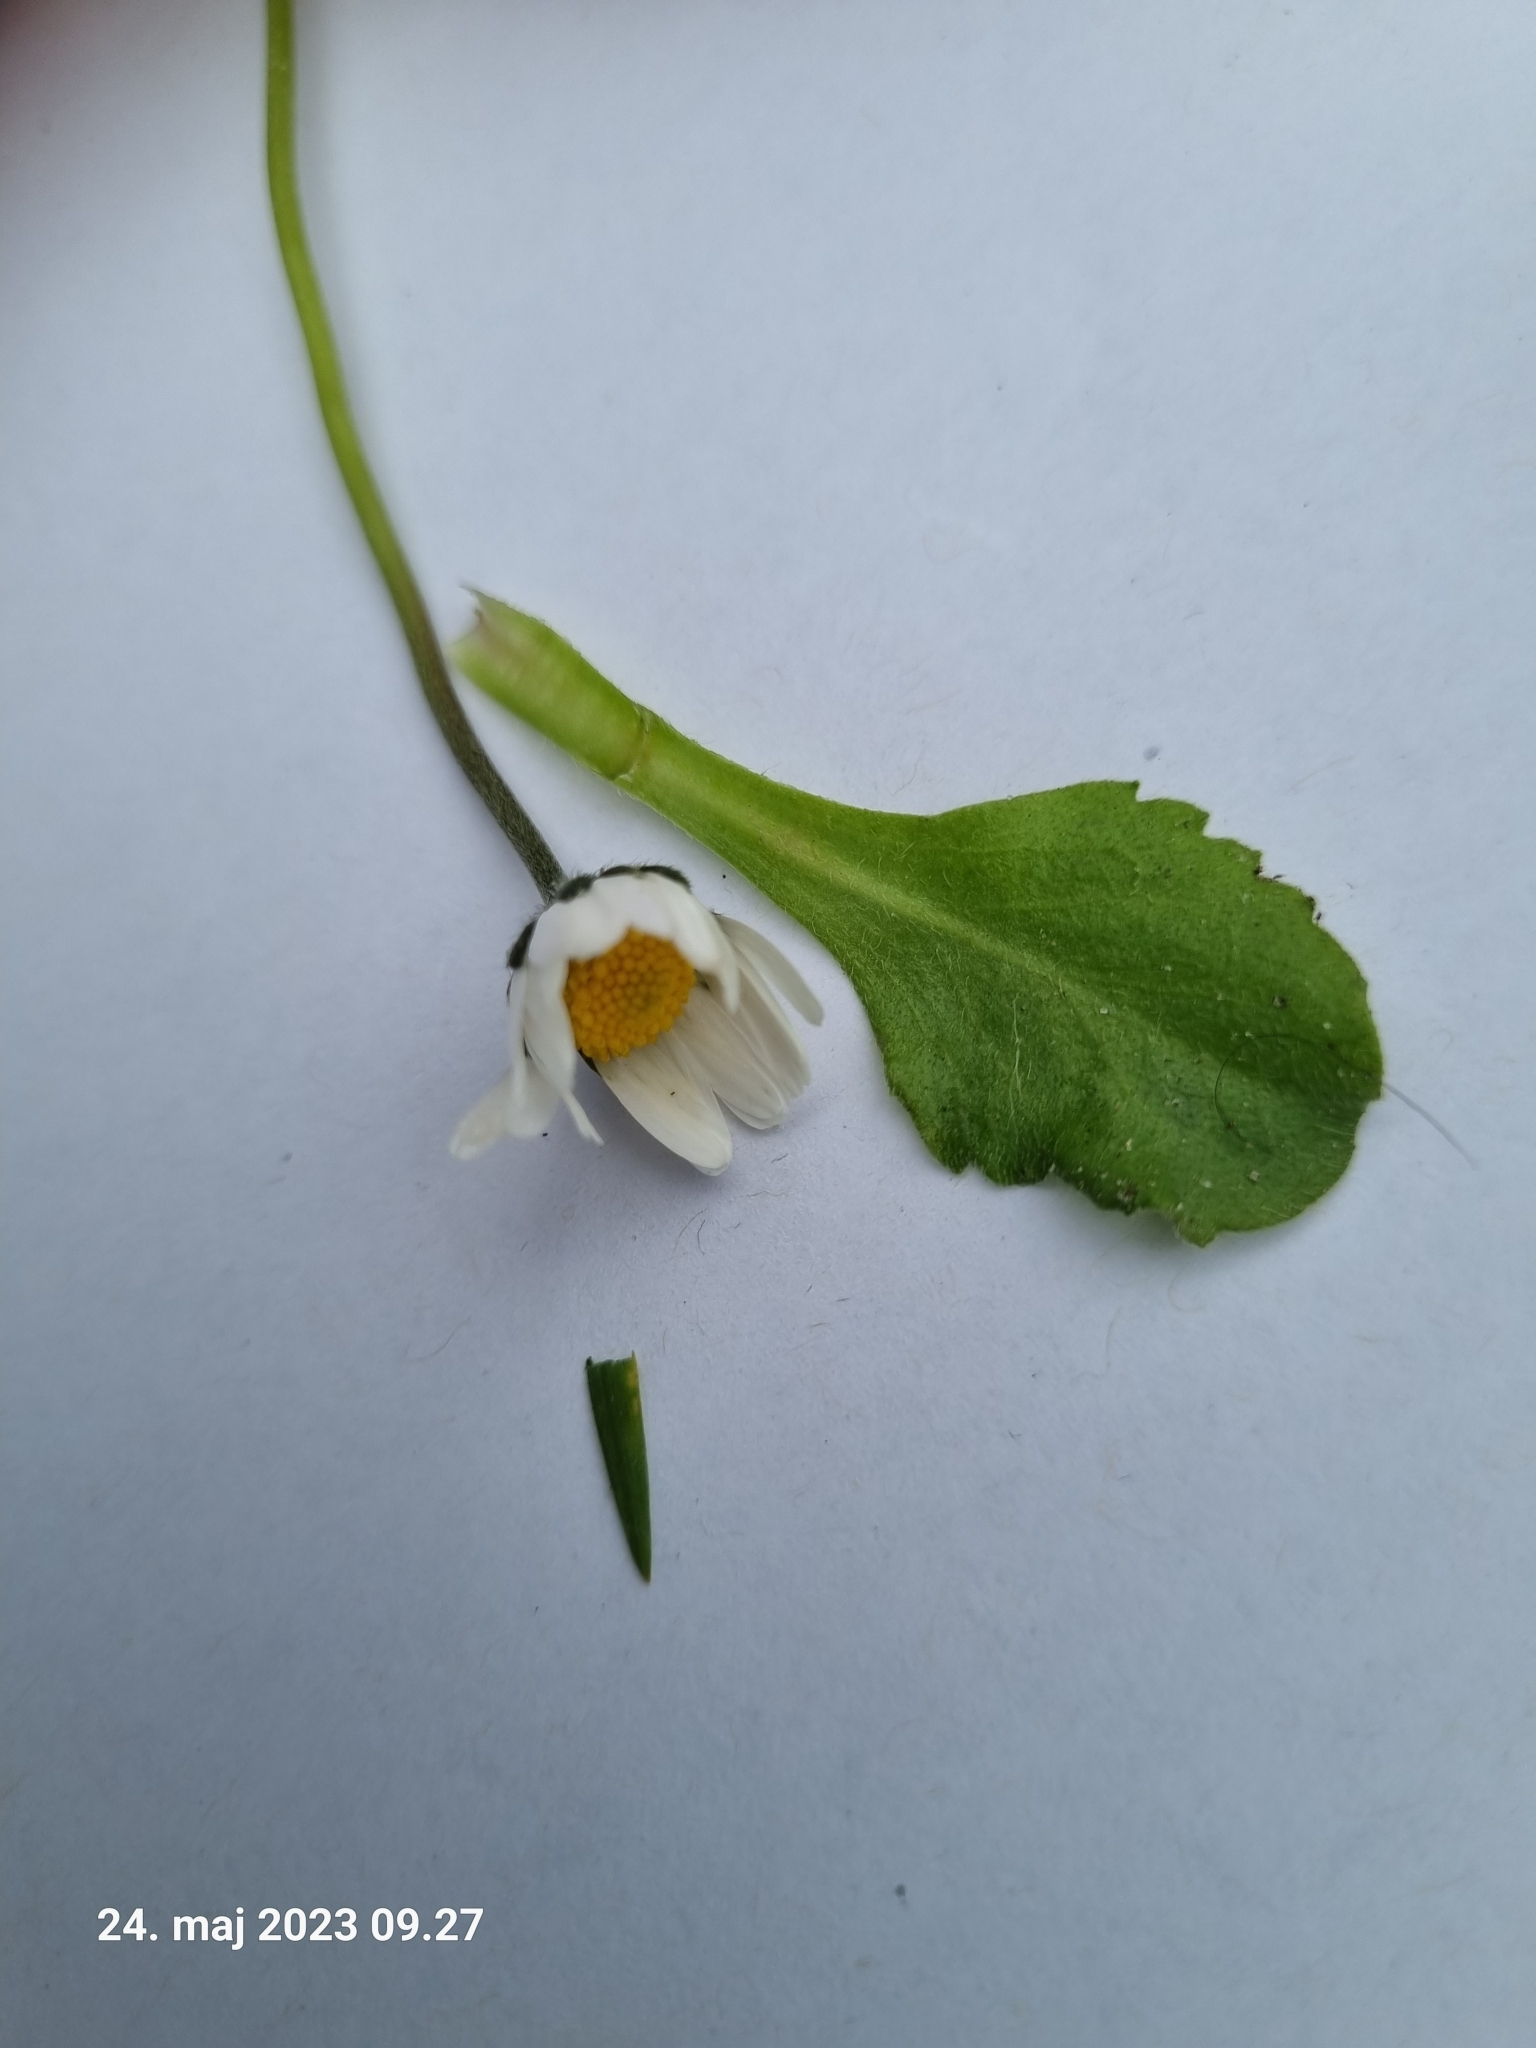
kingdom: Plantae
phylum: Tracheophyta
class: Magnoliopsida
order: Asterales
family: Asteraceae
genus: Bellis
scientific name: Bellis perennis
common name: Lawndaisy
